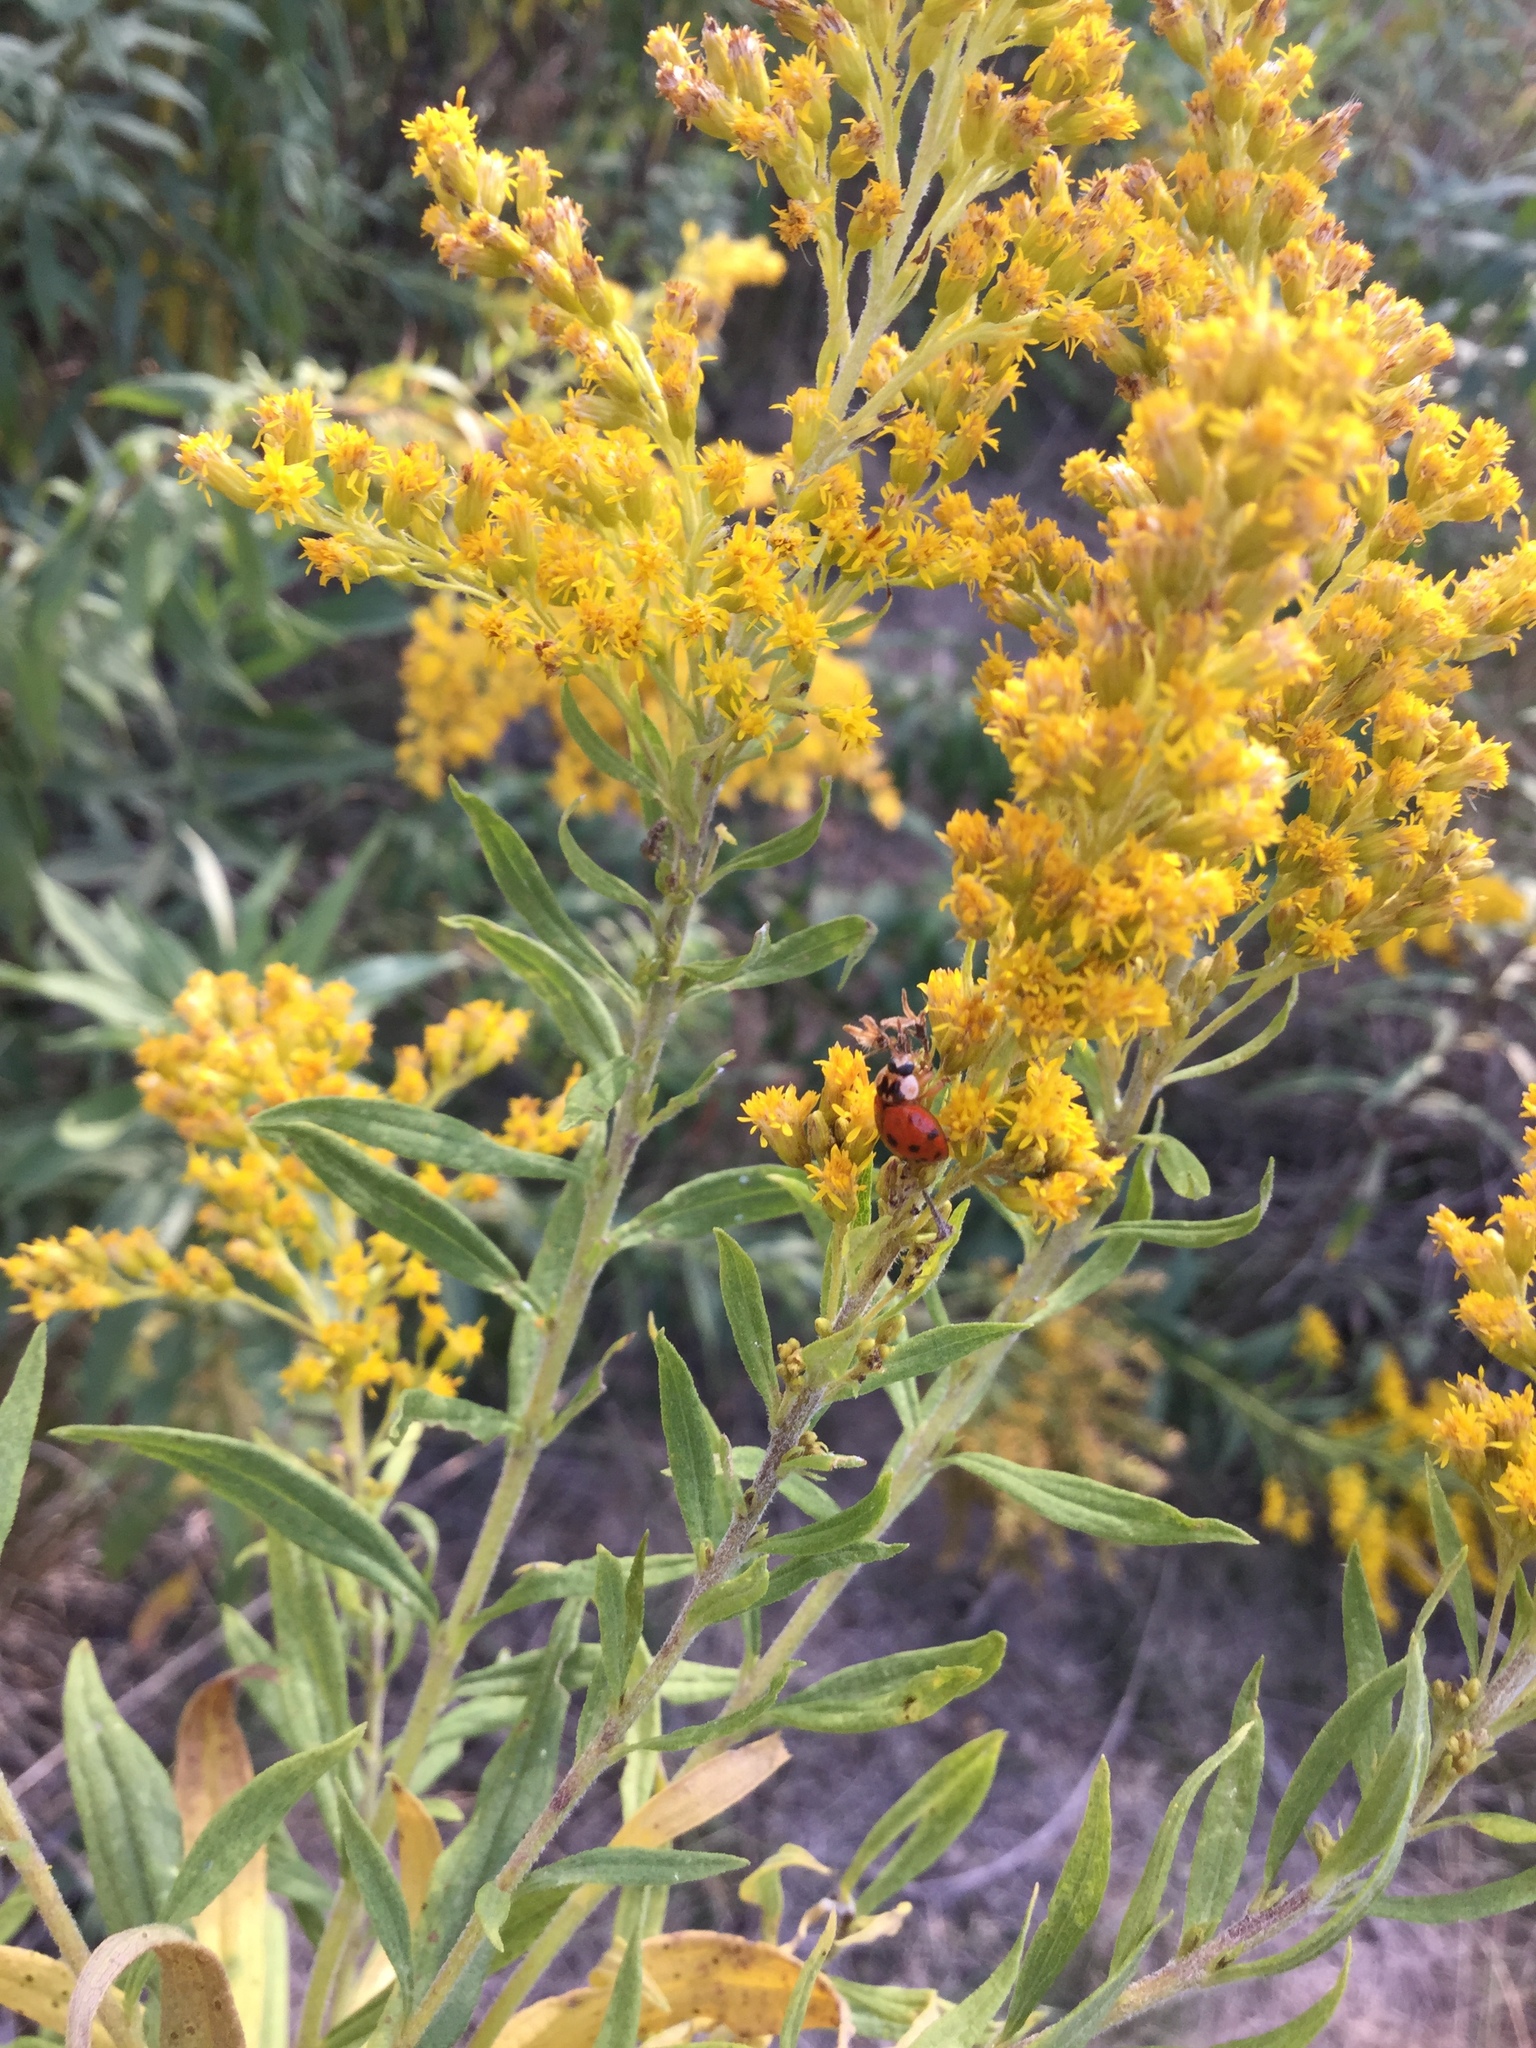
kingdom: Animalia
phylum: Arthropoda
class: Insecta
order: Coleoptera
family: Coccinellidae
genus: Harmonia
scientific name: Harmonia axyridis
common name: Harlequin ladybird
